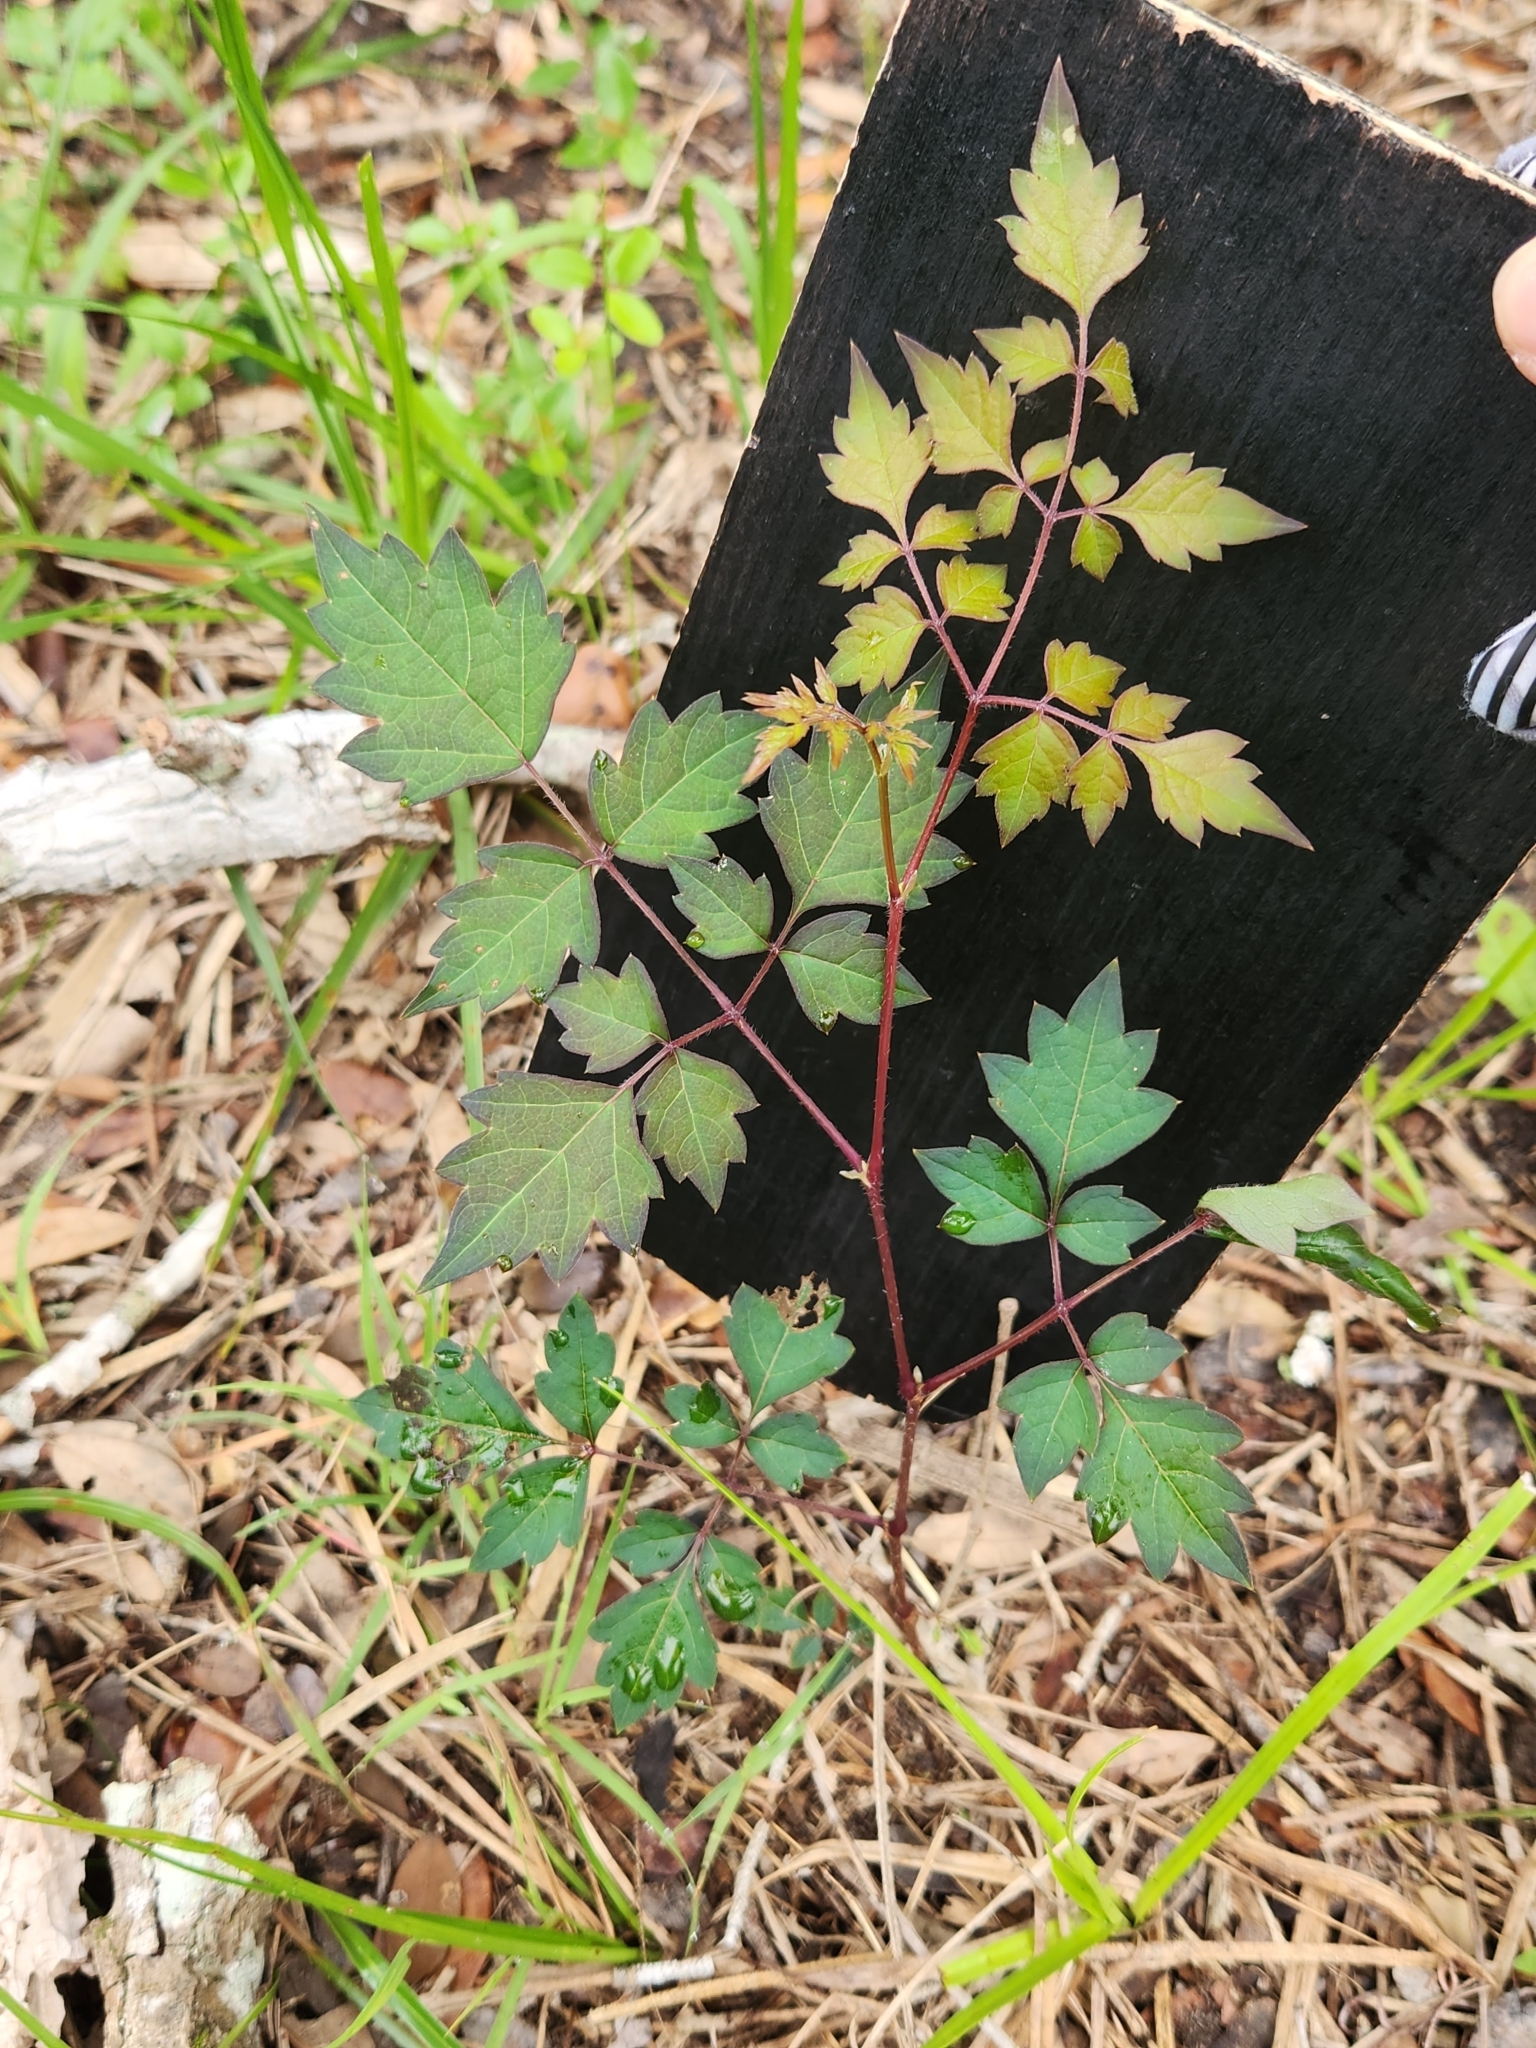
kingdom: Plantae
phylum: Tracheophyta
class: Magnoliopsida
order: Vitales
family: Vitaceae
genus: Nekemias
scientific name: Nekemias arborea
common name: Peppervine
